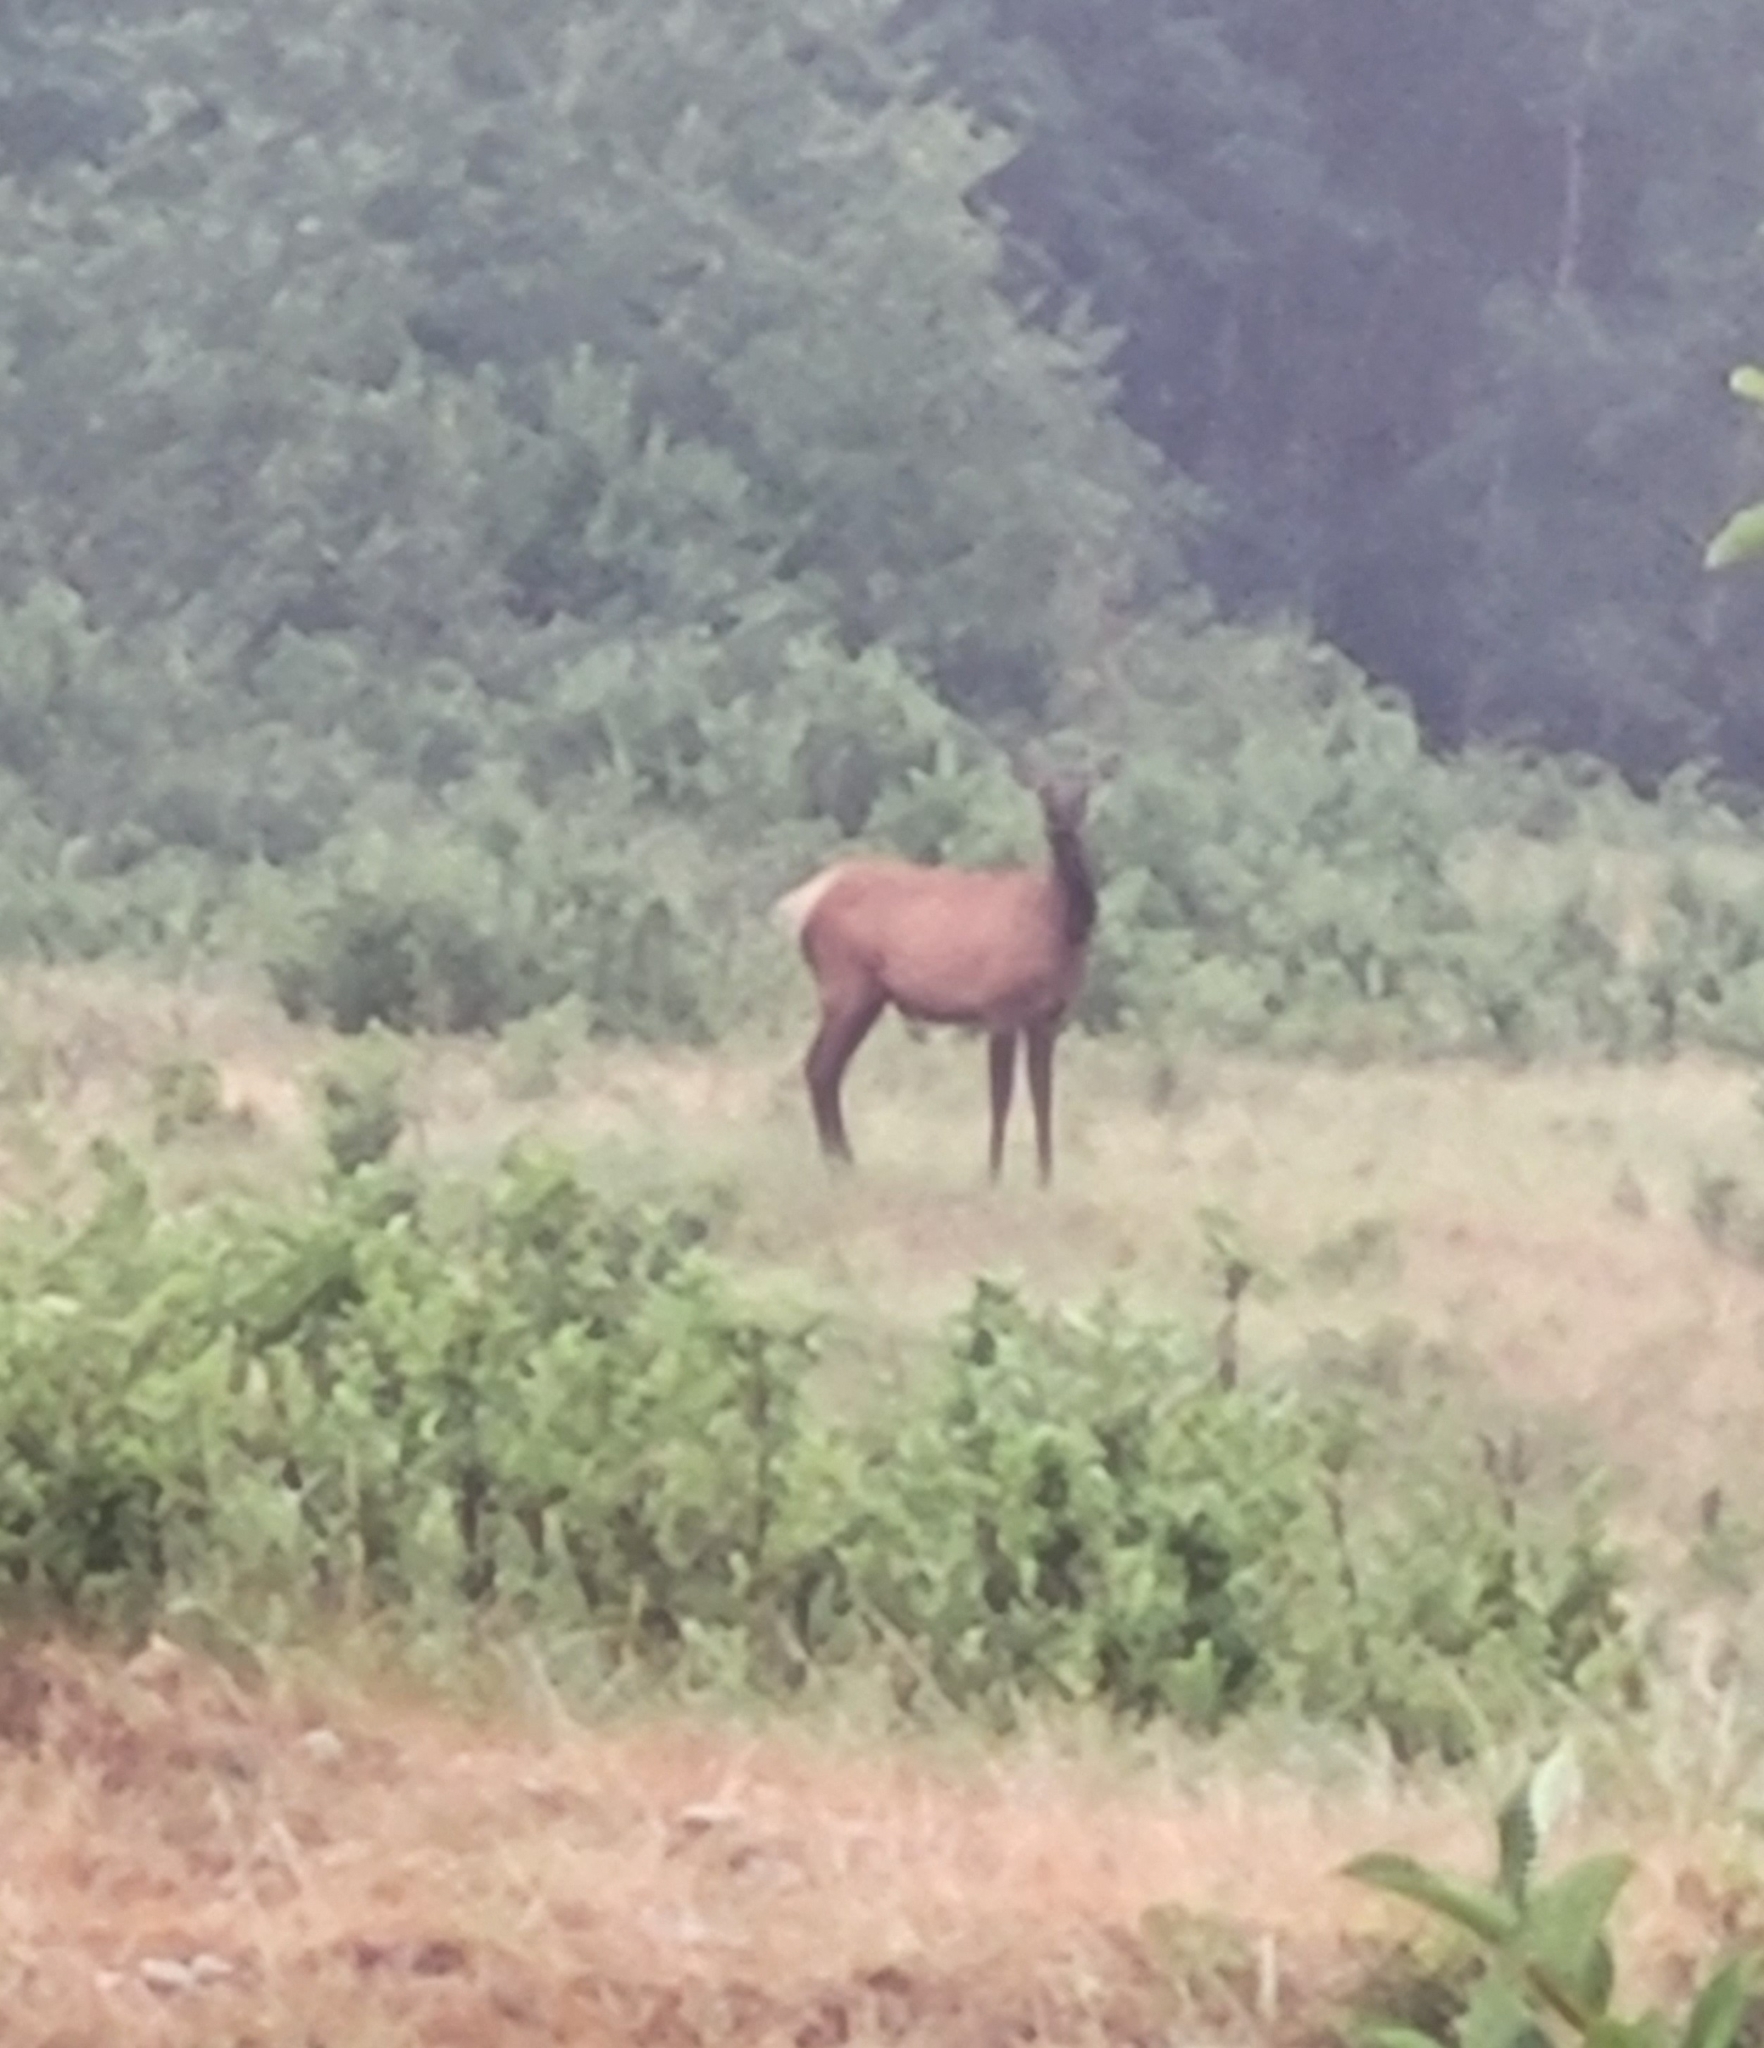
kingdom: Animalia
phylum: Chordata
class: Mammalia
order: Artiodactyla
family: Cervidae
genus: Cervus
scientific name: Cervus elaphus
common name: Red deer
